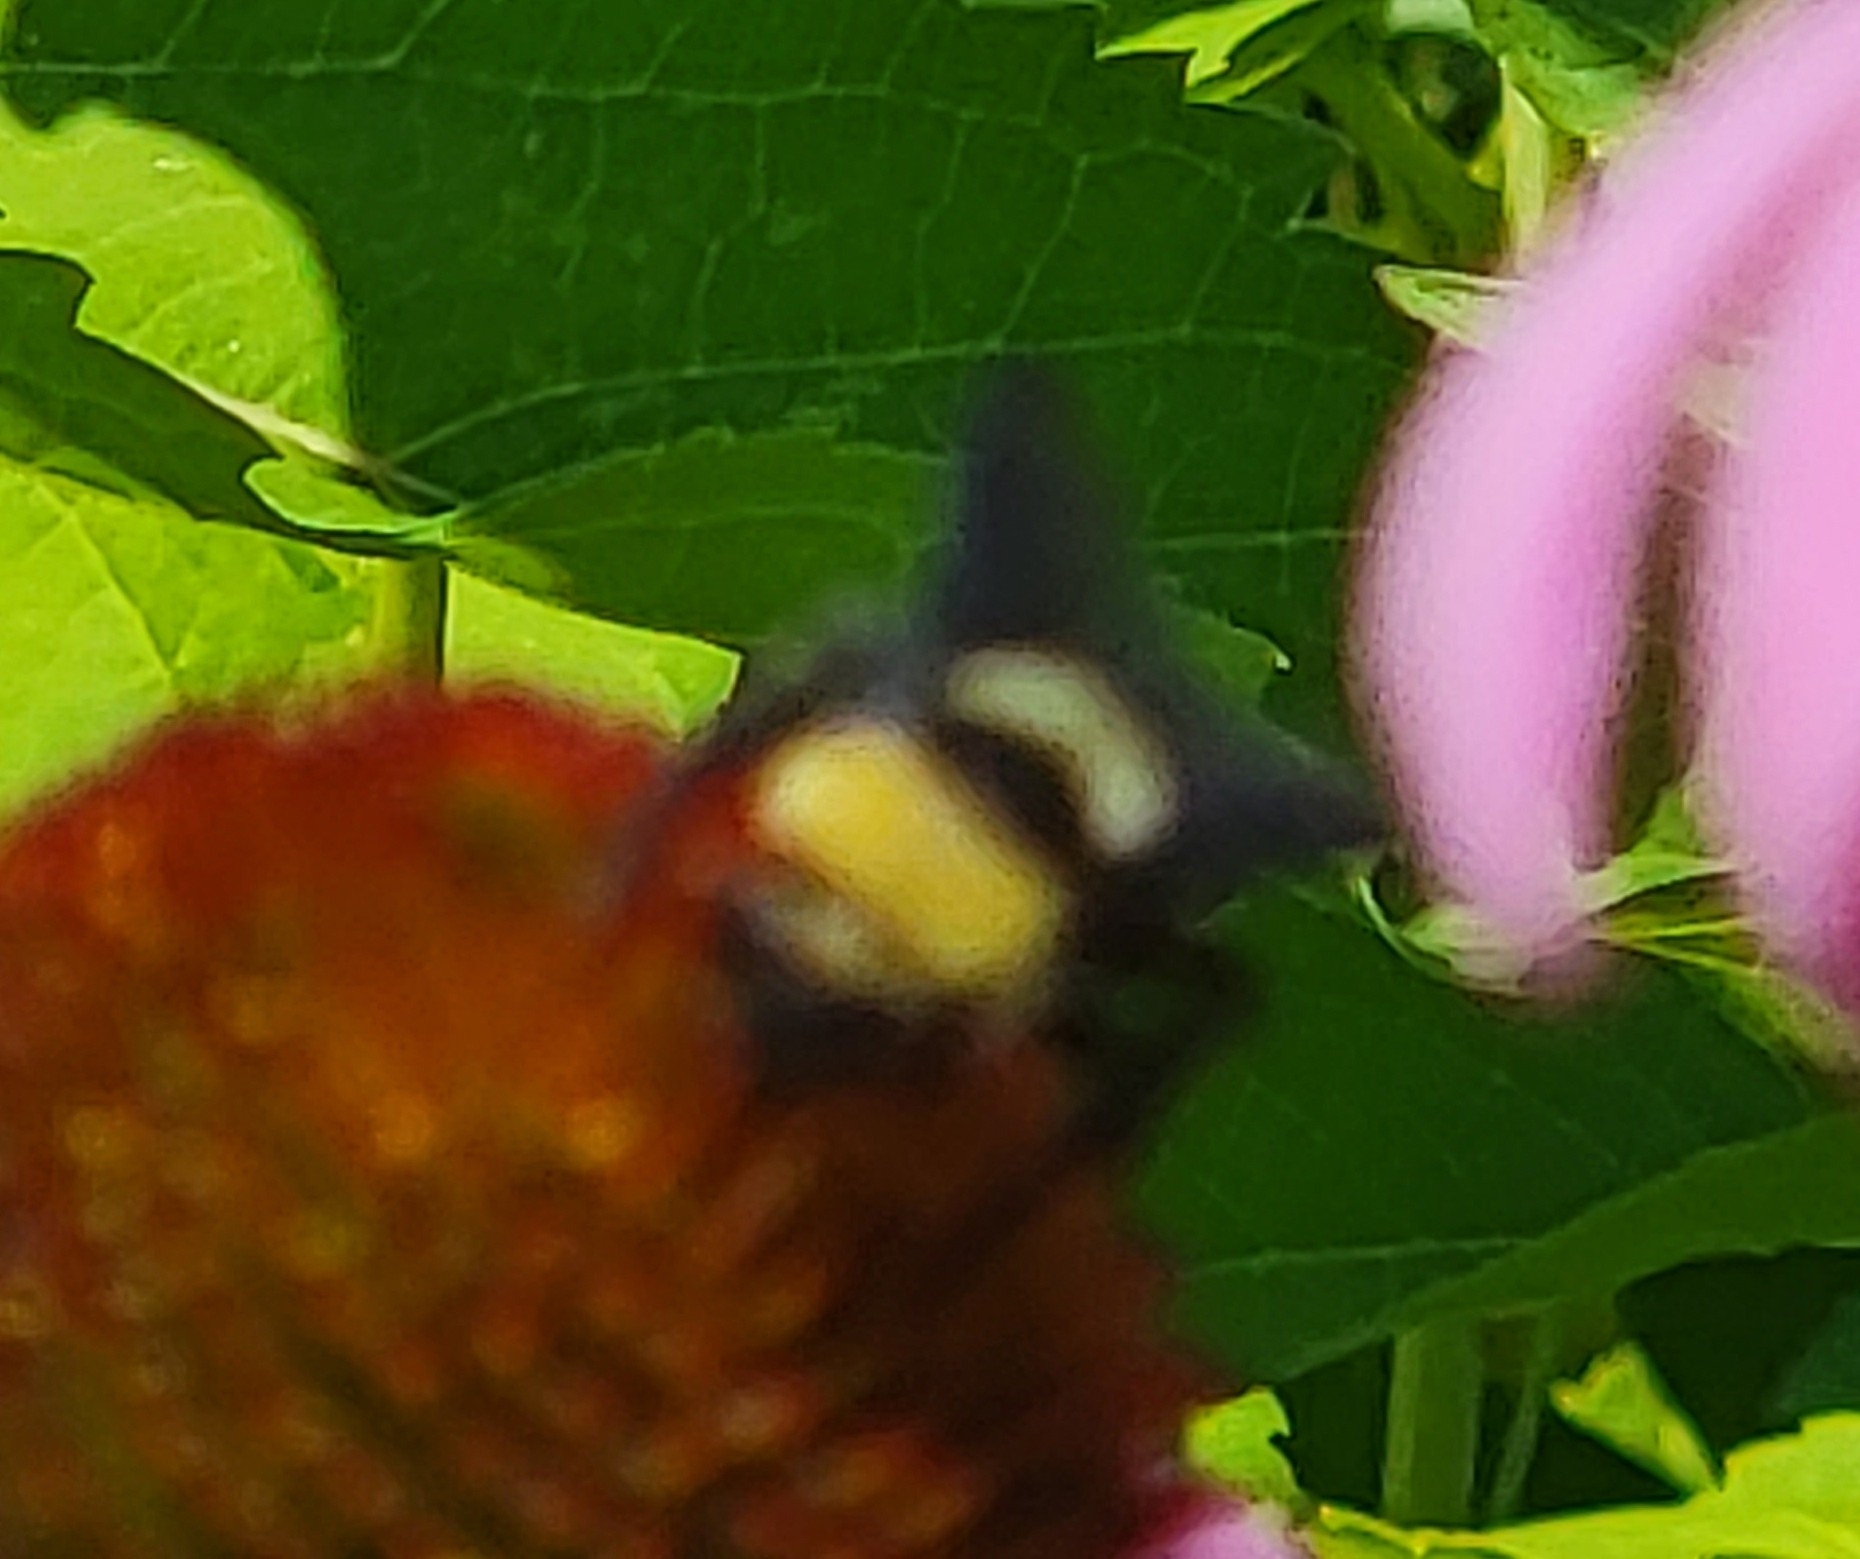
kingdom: Animalia
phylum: Arthropoda
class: Insecta
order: Hymenoptera
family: Apidae
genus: Bombus
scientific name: Bombus auricomus
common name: Black and gold bumble bee
